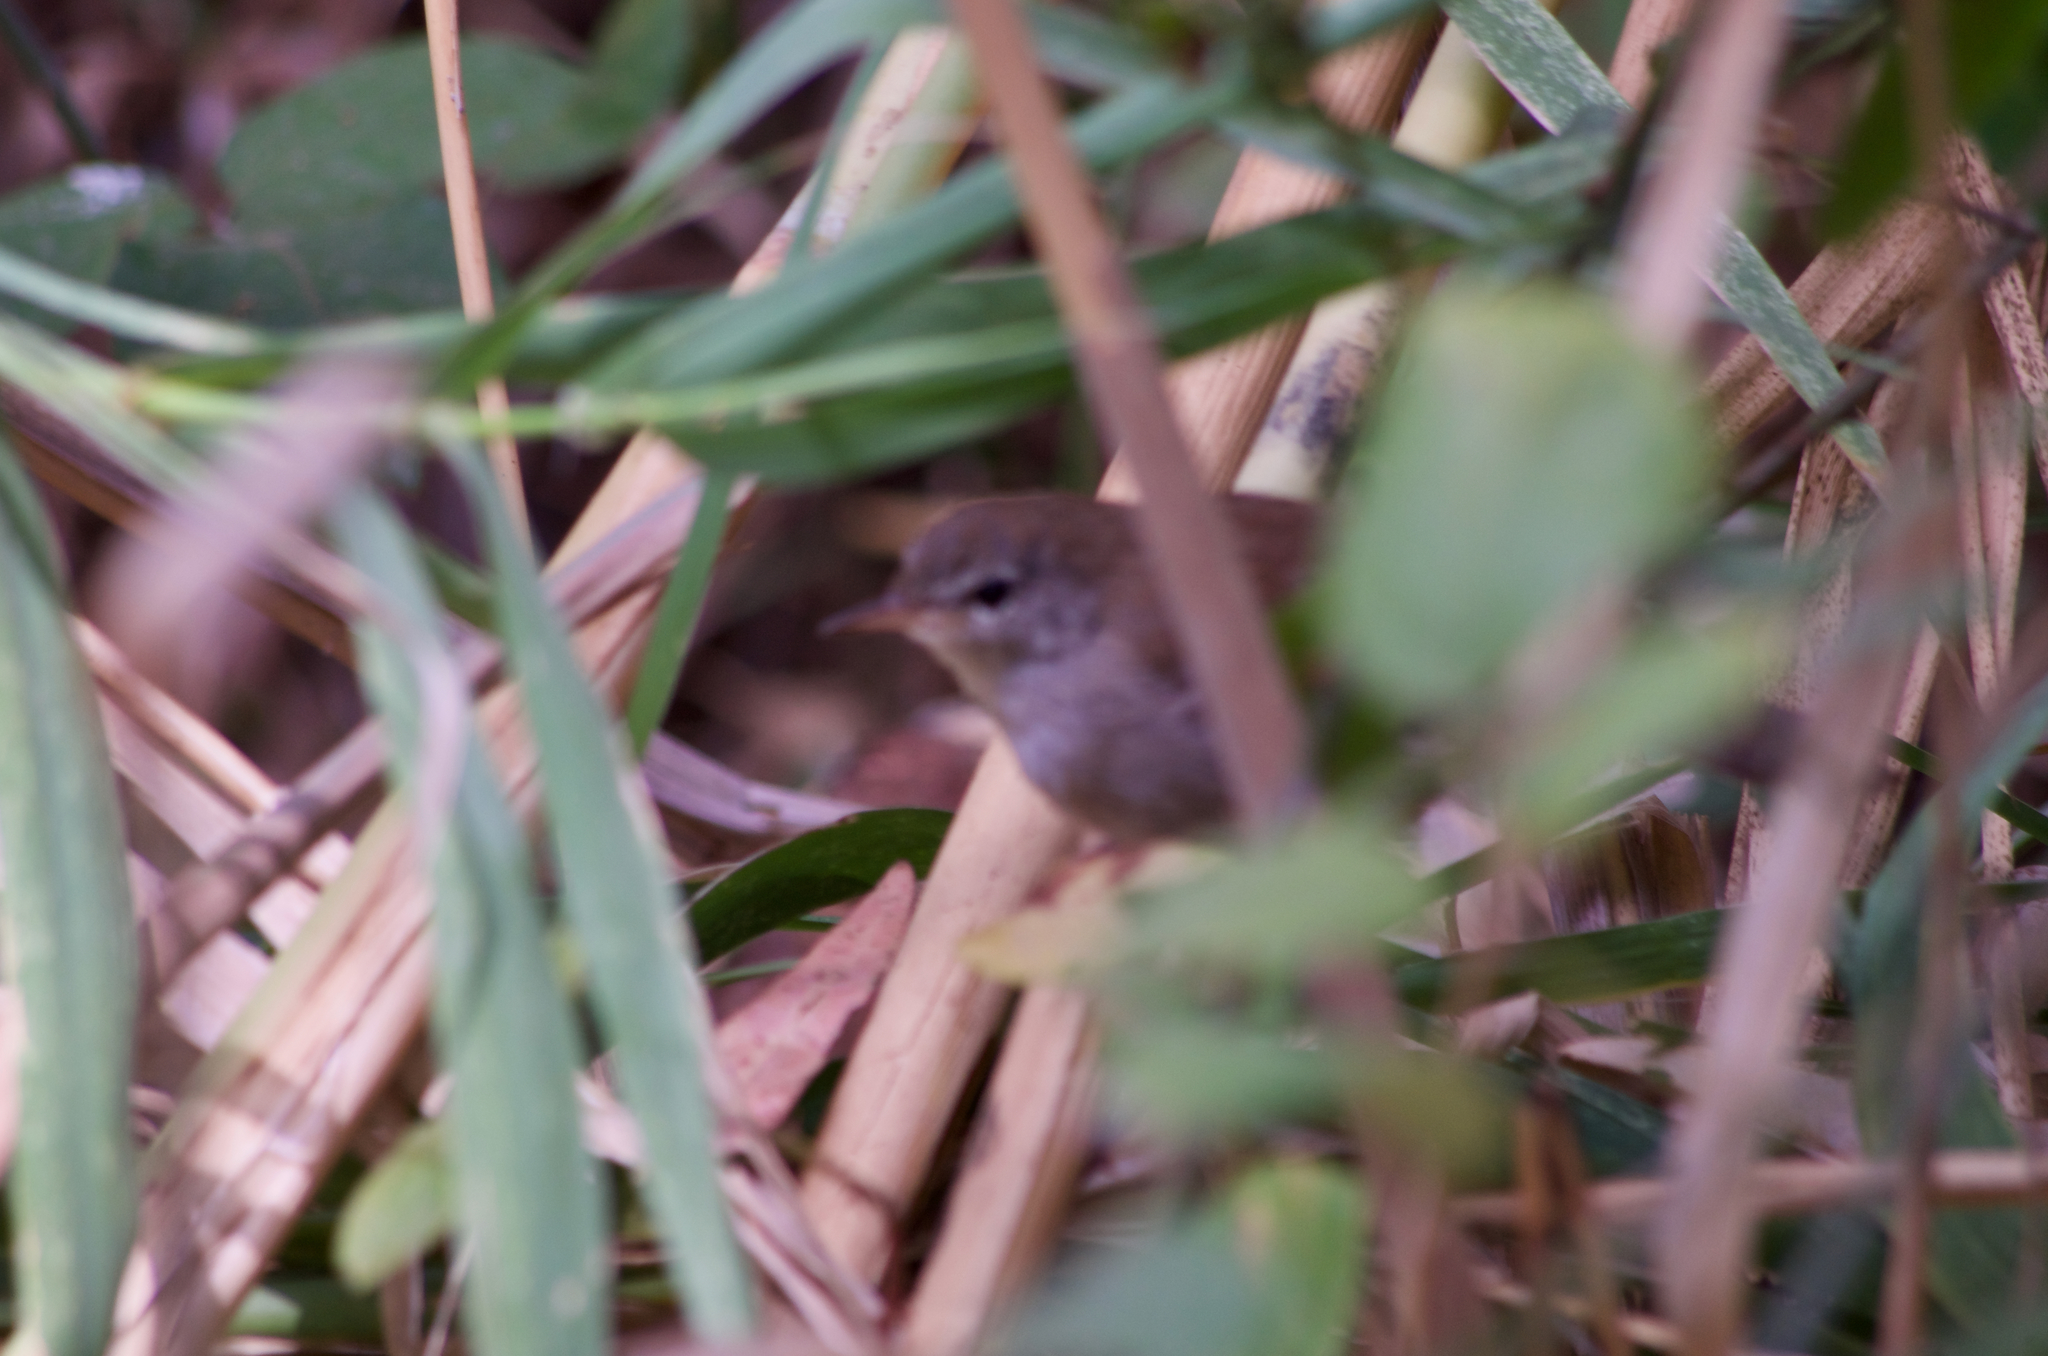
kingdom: Animalia
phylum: Chordata
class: Aves
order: Passeriformes
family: Cettiidae
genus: Cettia
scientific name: Cettia cetti
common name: Cetti's warbler
